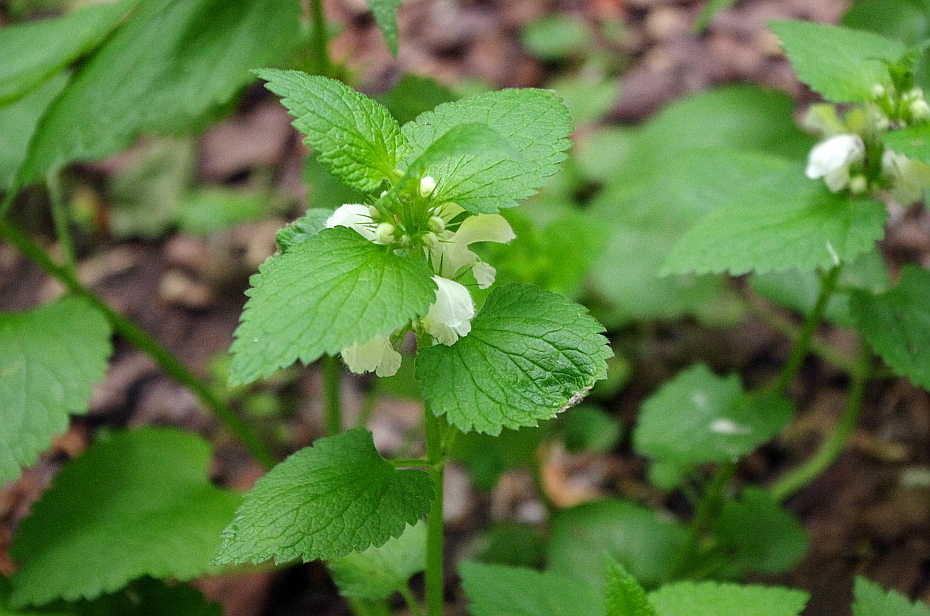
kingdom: Plantae
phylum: Tracheophyta
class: Magnoliopsida
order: Lamiales
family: Lamiaceae
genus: Lamium
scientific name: Lamium album
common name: White dead-nettle
